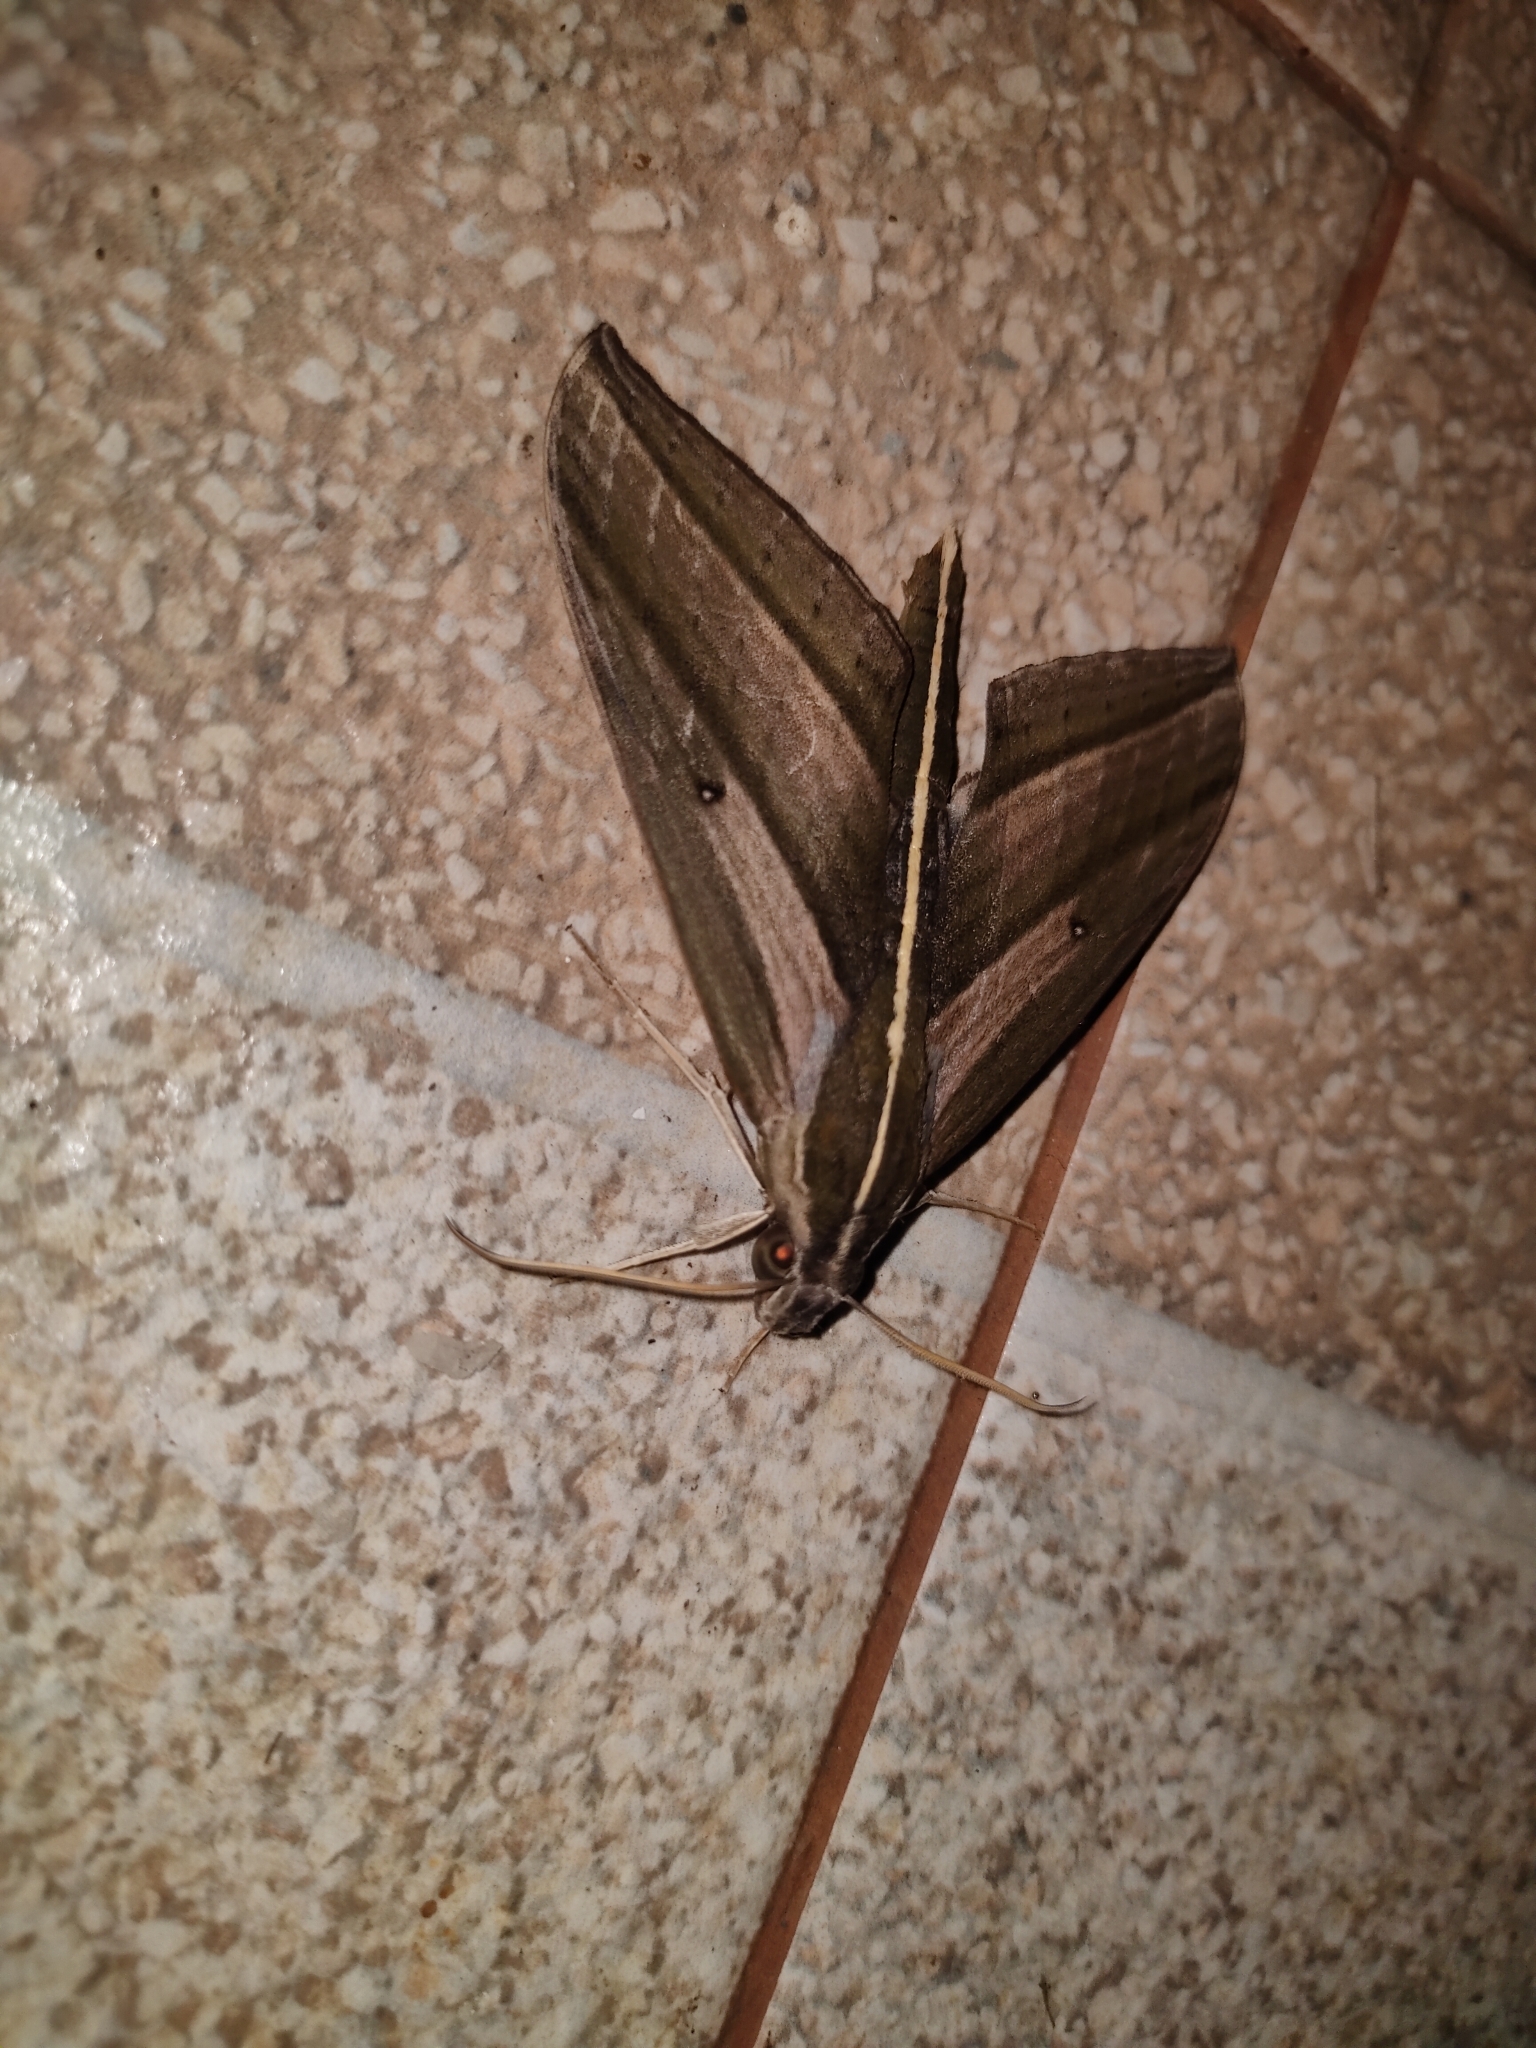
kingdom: Animalia
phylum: Arthropoda
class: Insecta
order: Lepidoptera
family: Sphingidae
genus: Elibia
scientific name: Elibia dolichus
